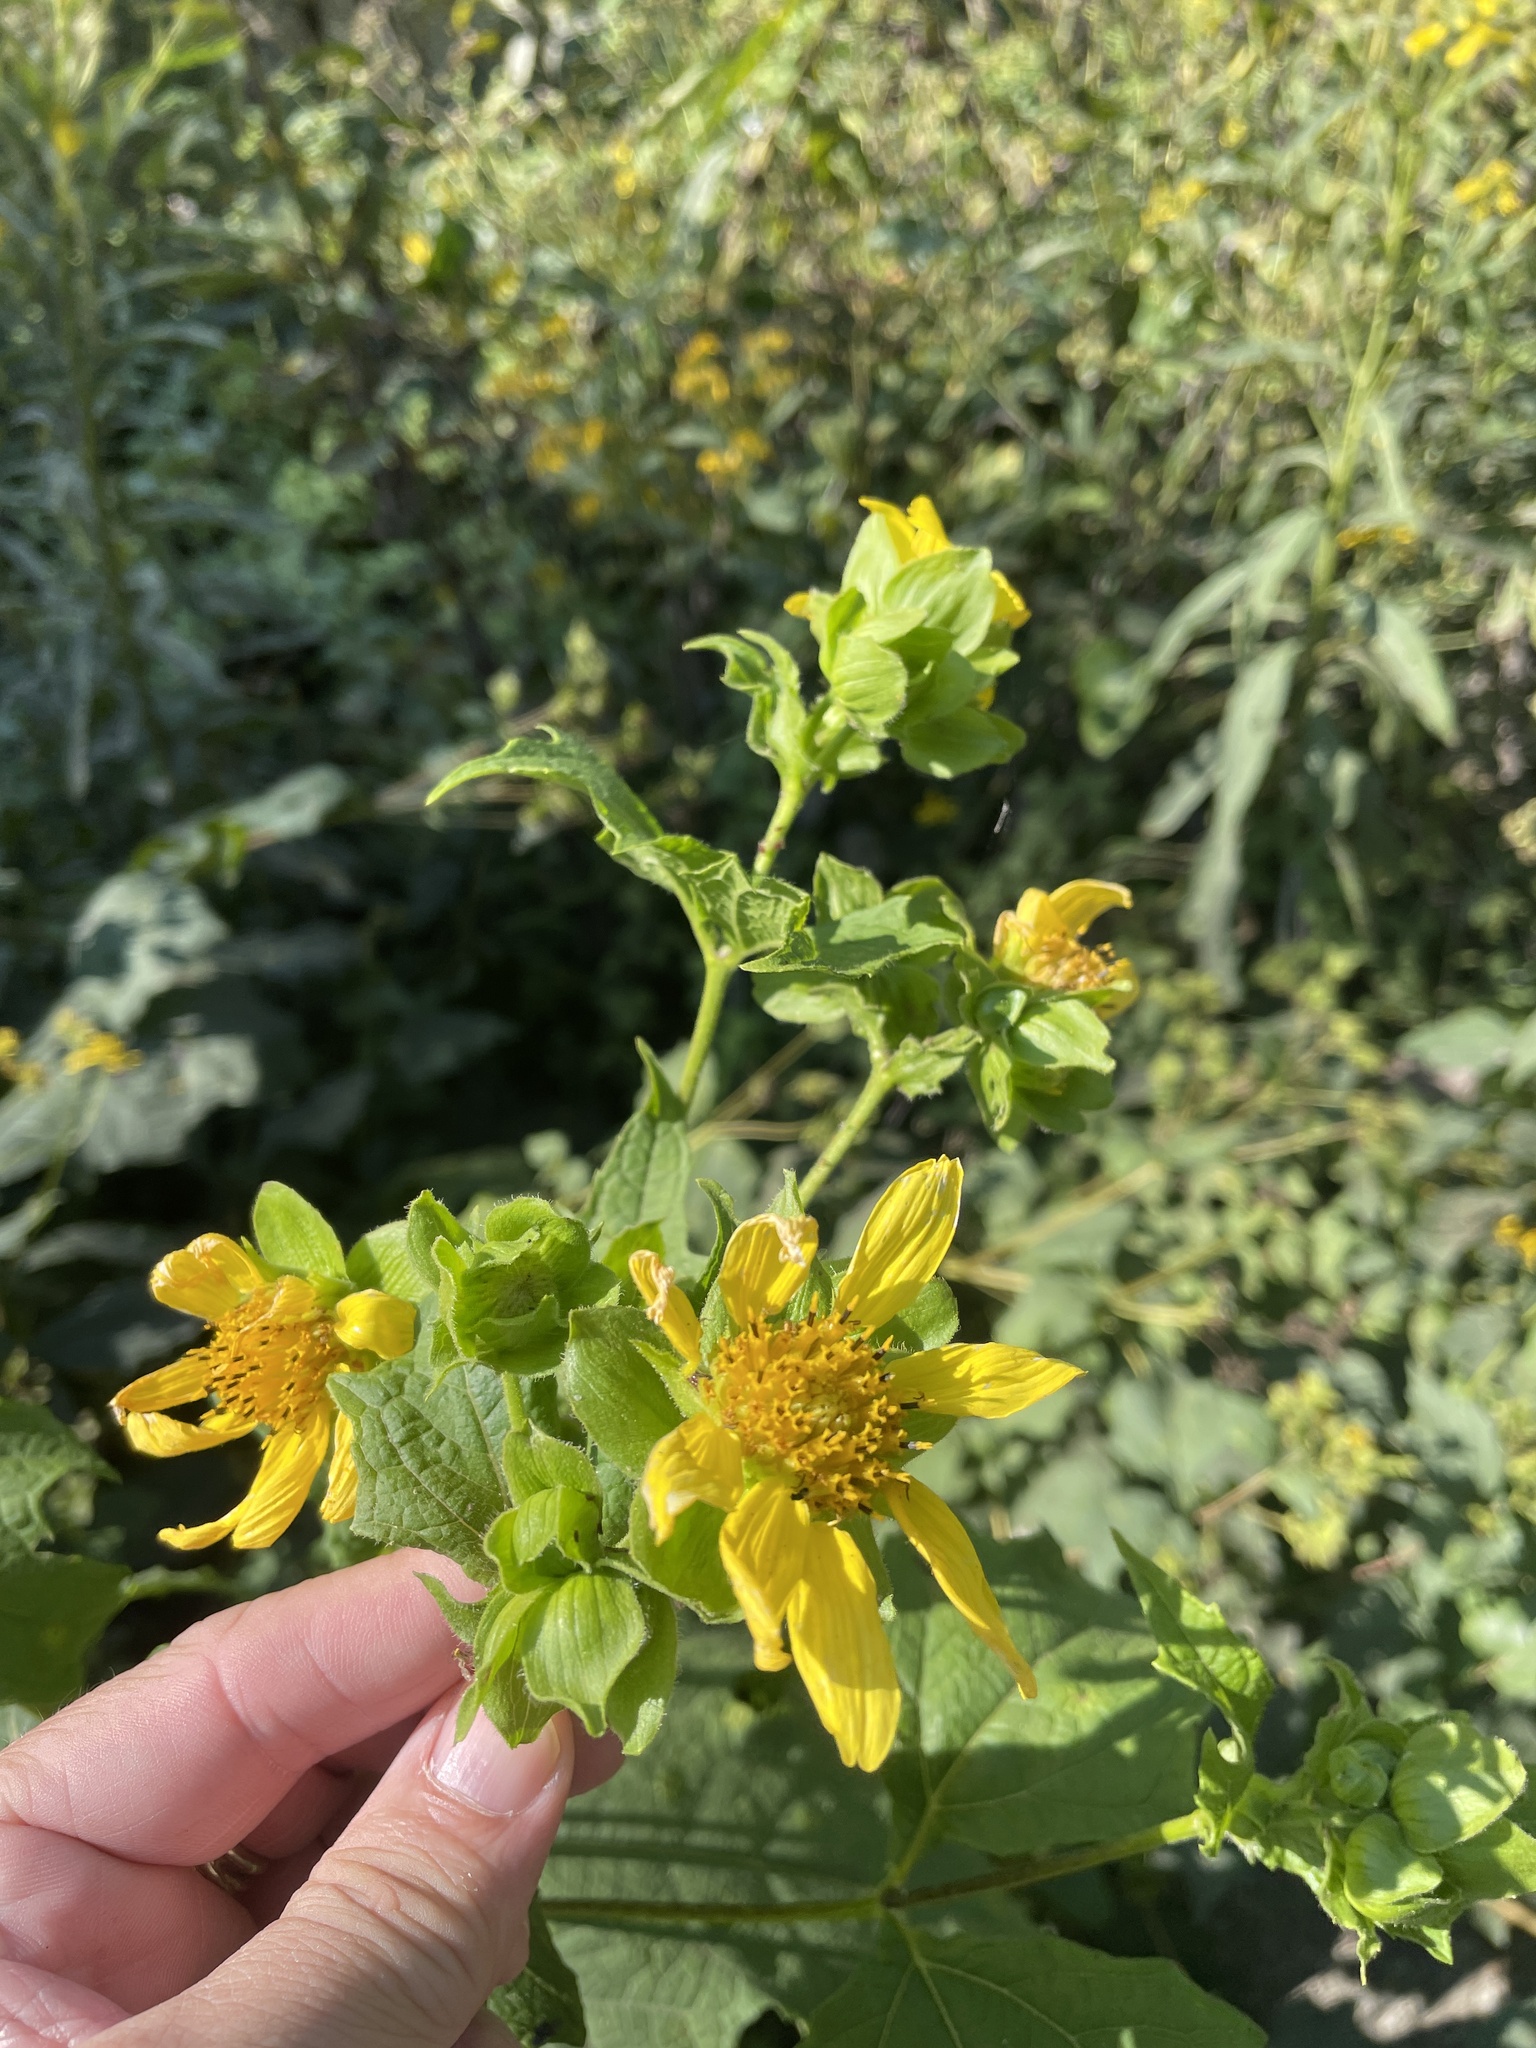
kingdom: Plantae
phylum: Tracheophyta
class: Magnoliopsida
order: Asterales
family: Asteraceae
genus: Smallanthus
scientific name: Smallanthus uvedalia
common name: Bear's-foot
